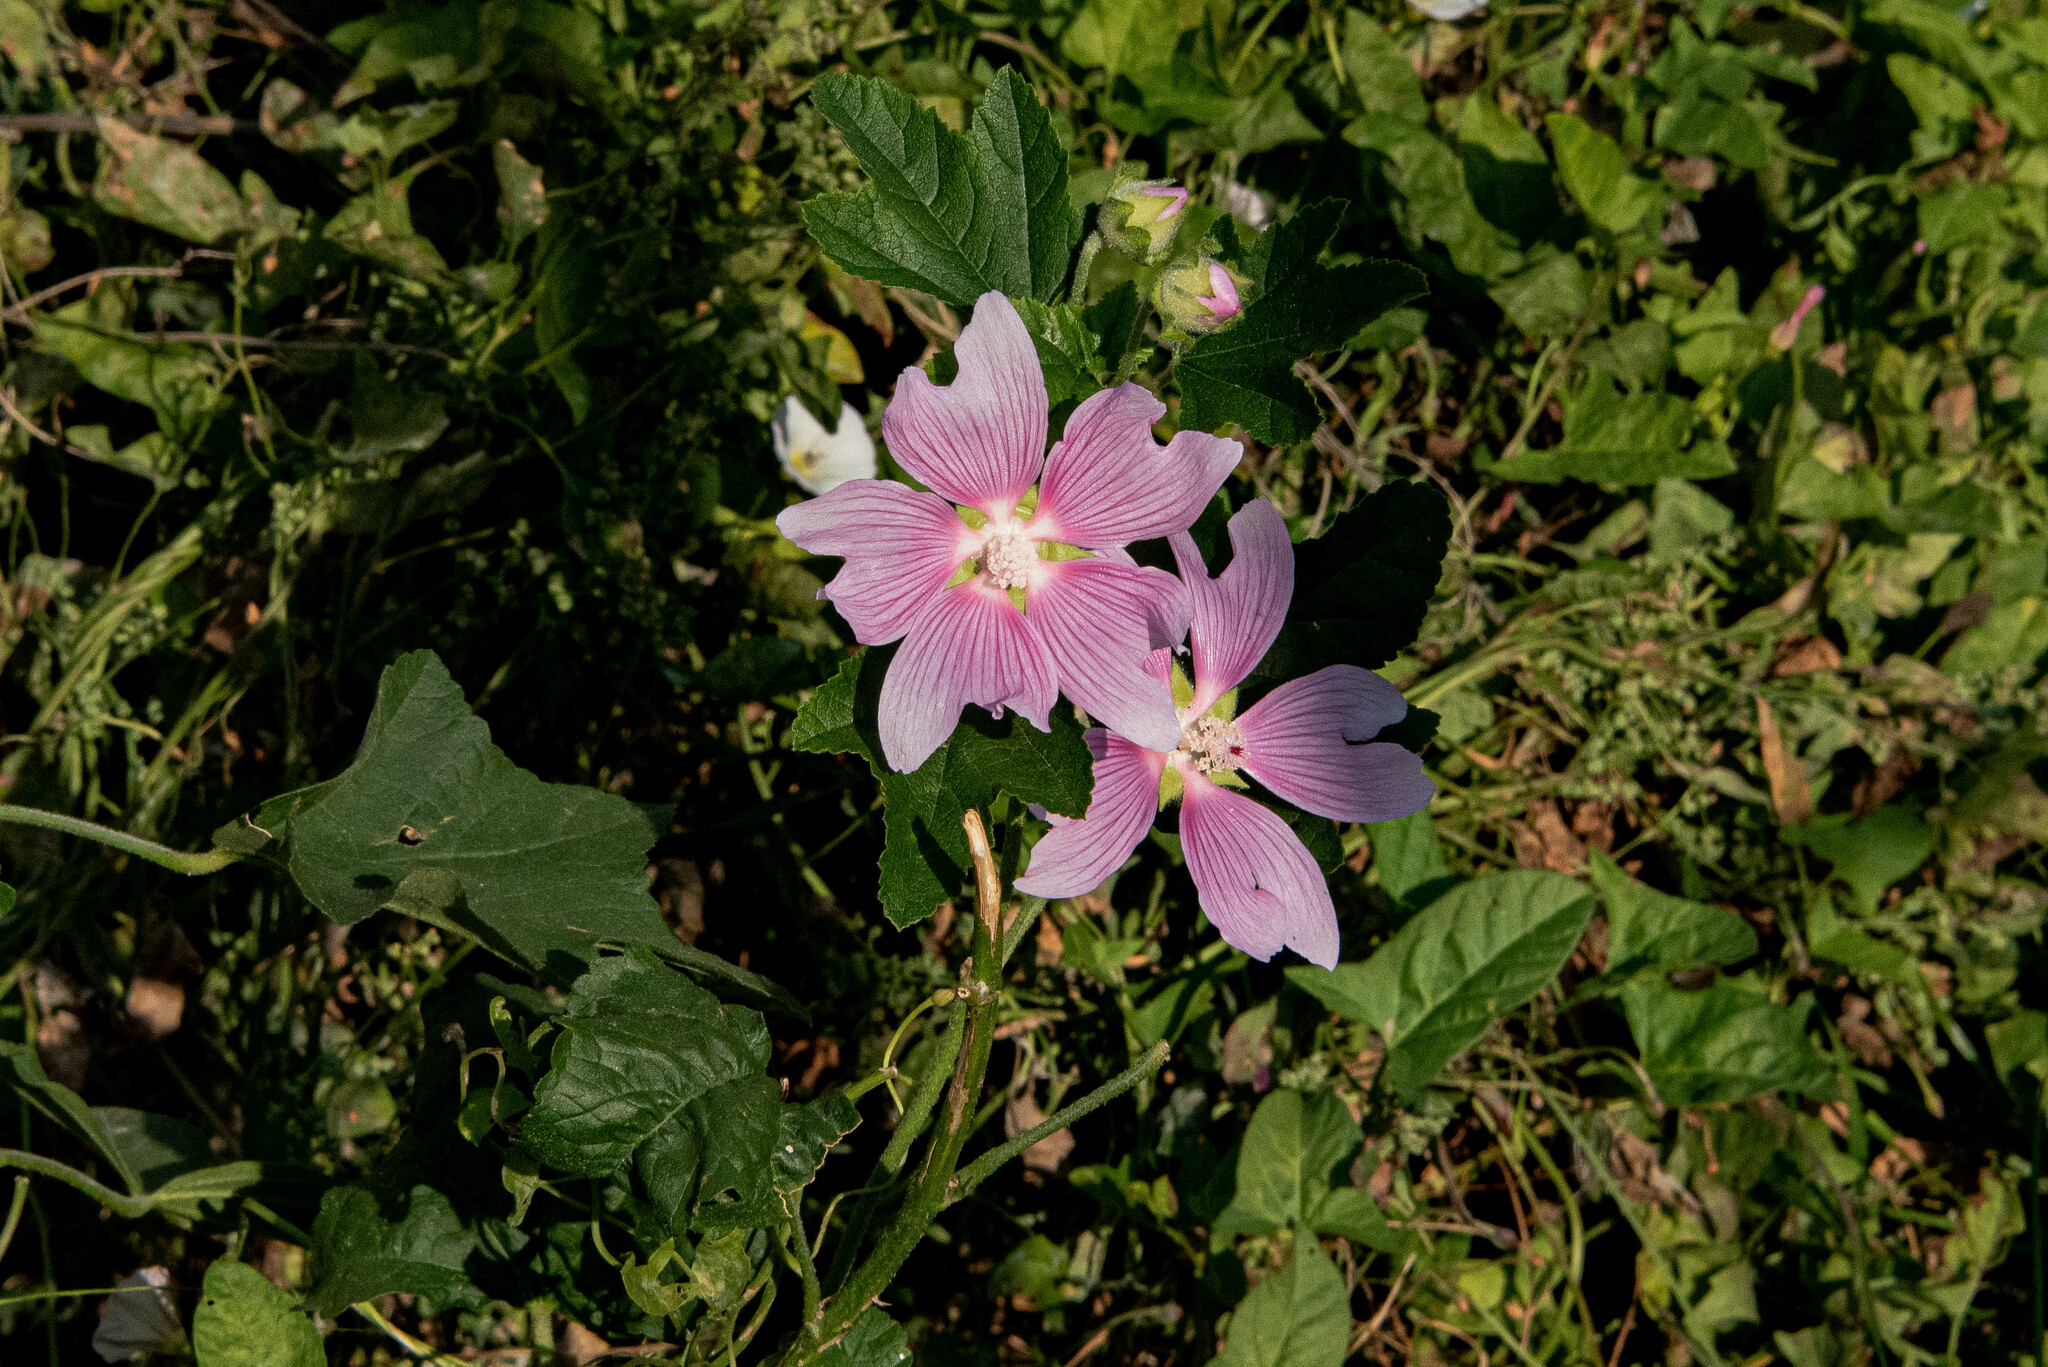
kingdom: Plantae
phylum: Tracheophyta
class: Magnoliopsida
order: Malvales
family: Malvaceae
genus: Malva
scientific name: Malva thuringiaca
